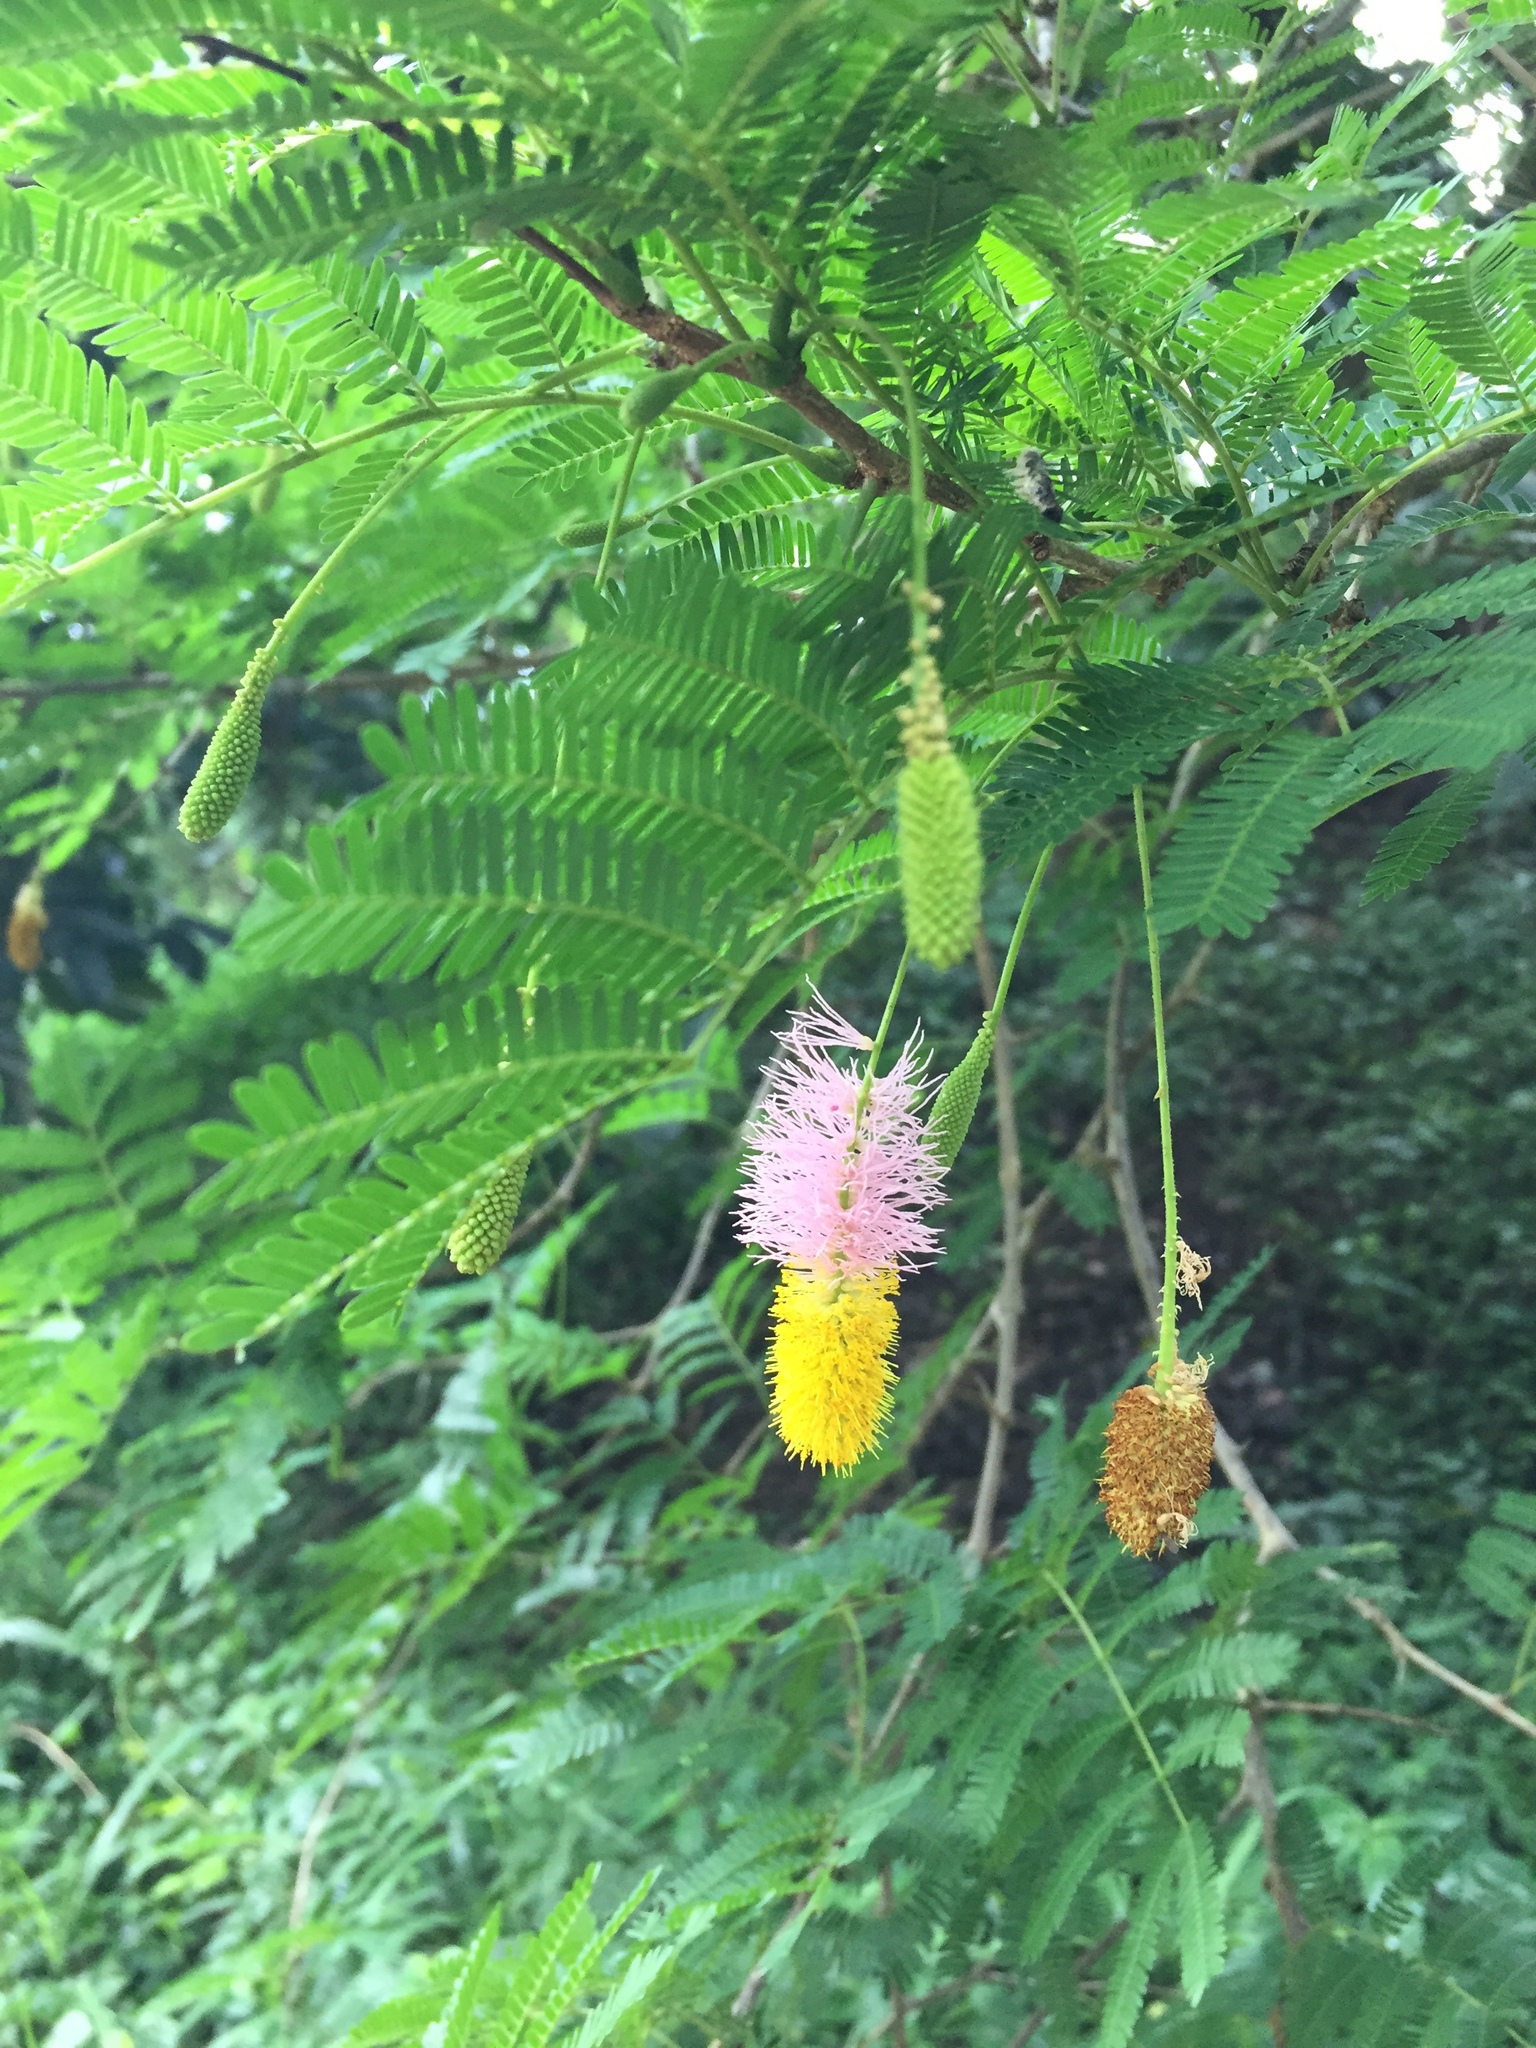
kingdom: Plantae
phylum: Tracheophyta
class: Magnoliopsida
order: Fabales
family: Fabaceae
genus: Dichrostachys
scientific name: Dichrostachys cinerea
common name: Sicklebush
